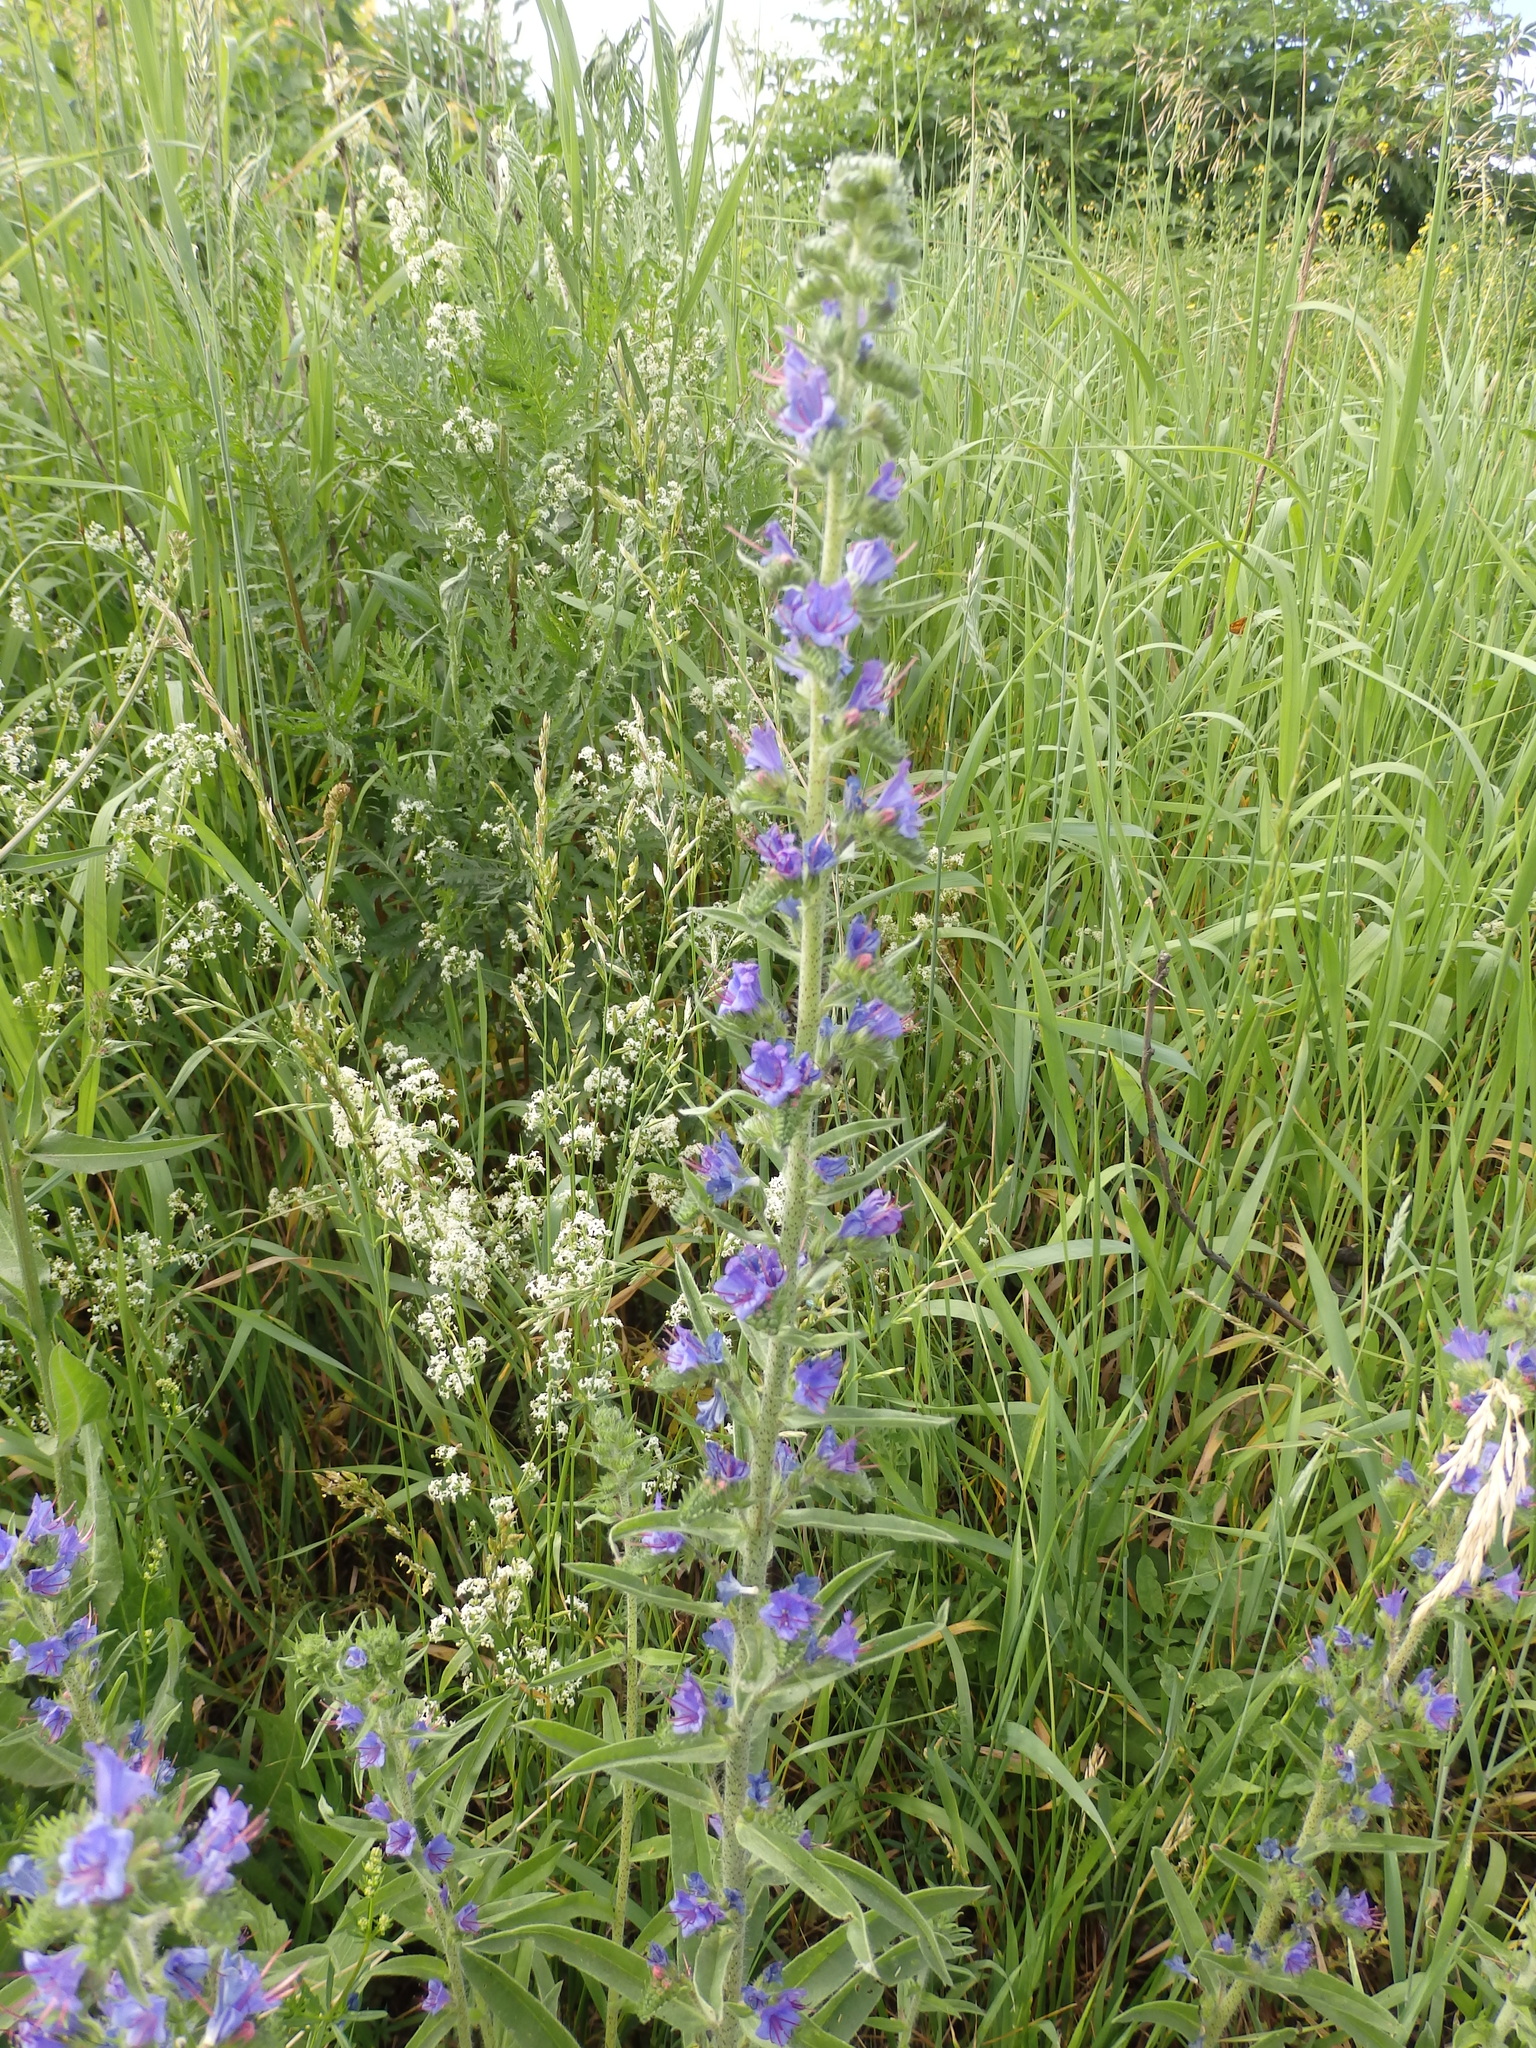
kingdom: Plantae
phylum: Tracheophyta
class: Magnoliopsida
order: Boraginales
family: Boraginaceae
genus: Echium
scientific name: Echium vulgare
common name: Common viper's bugloss
